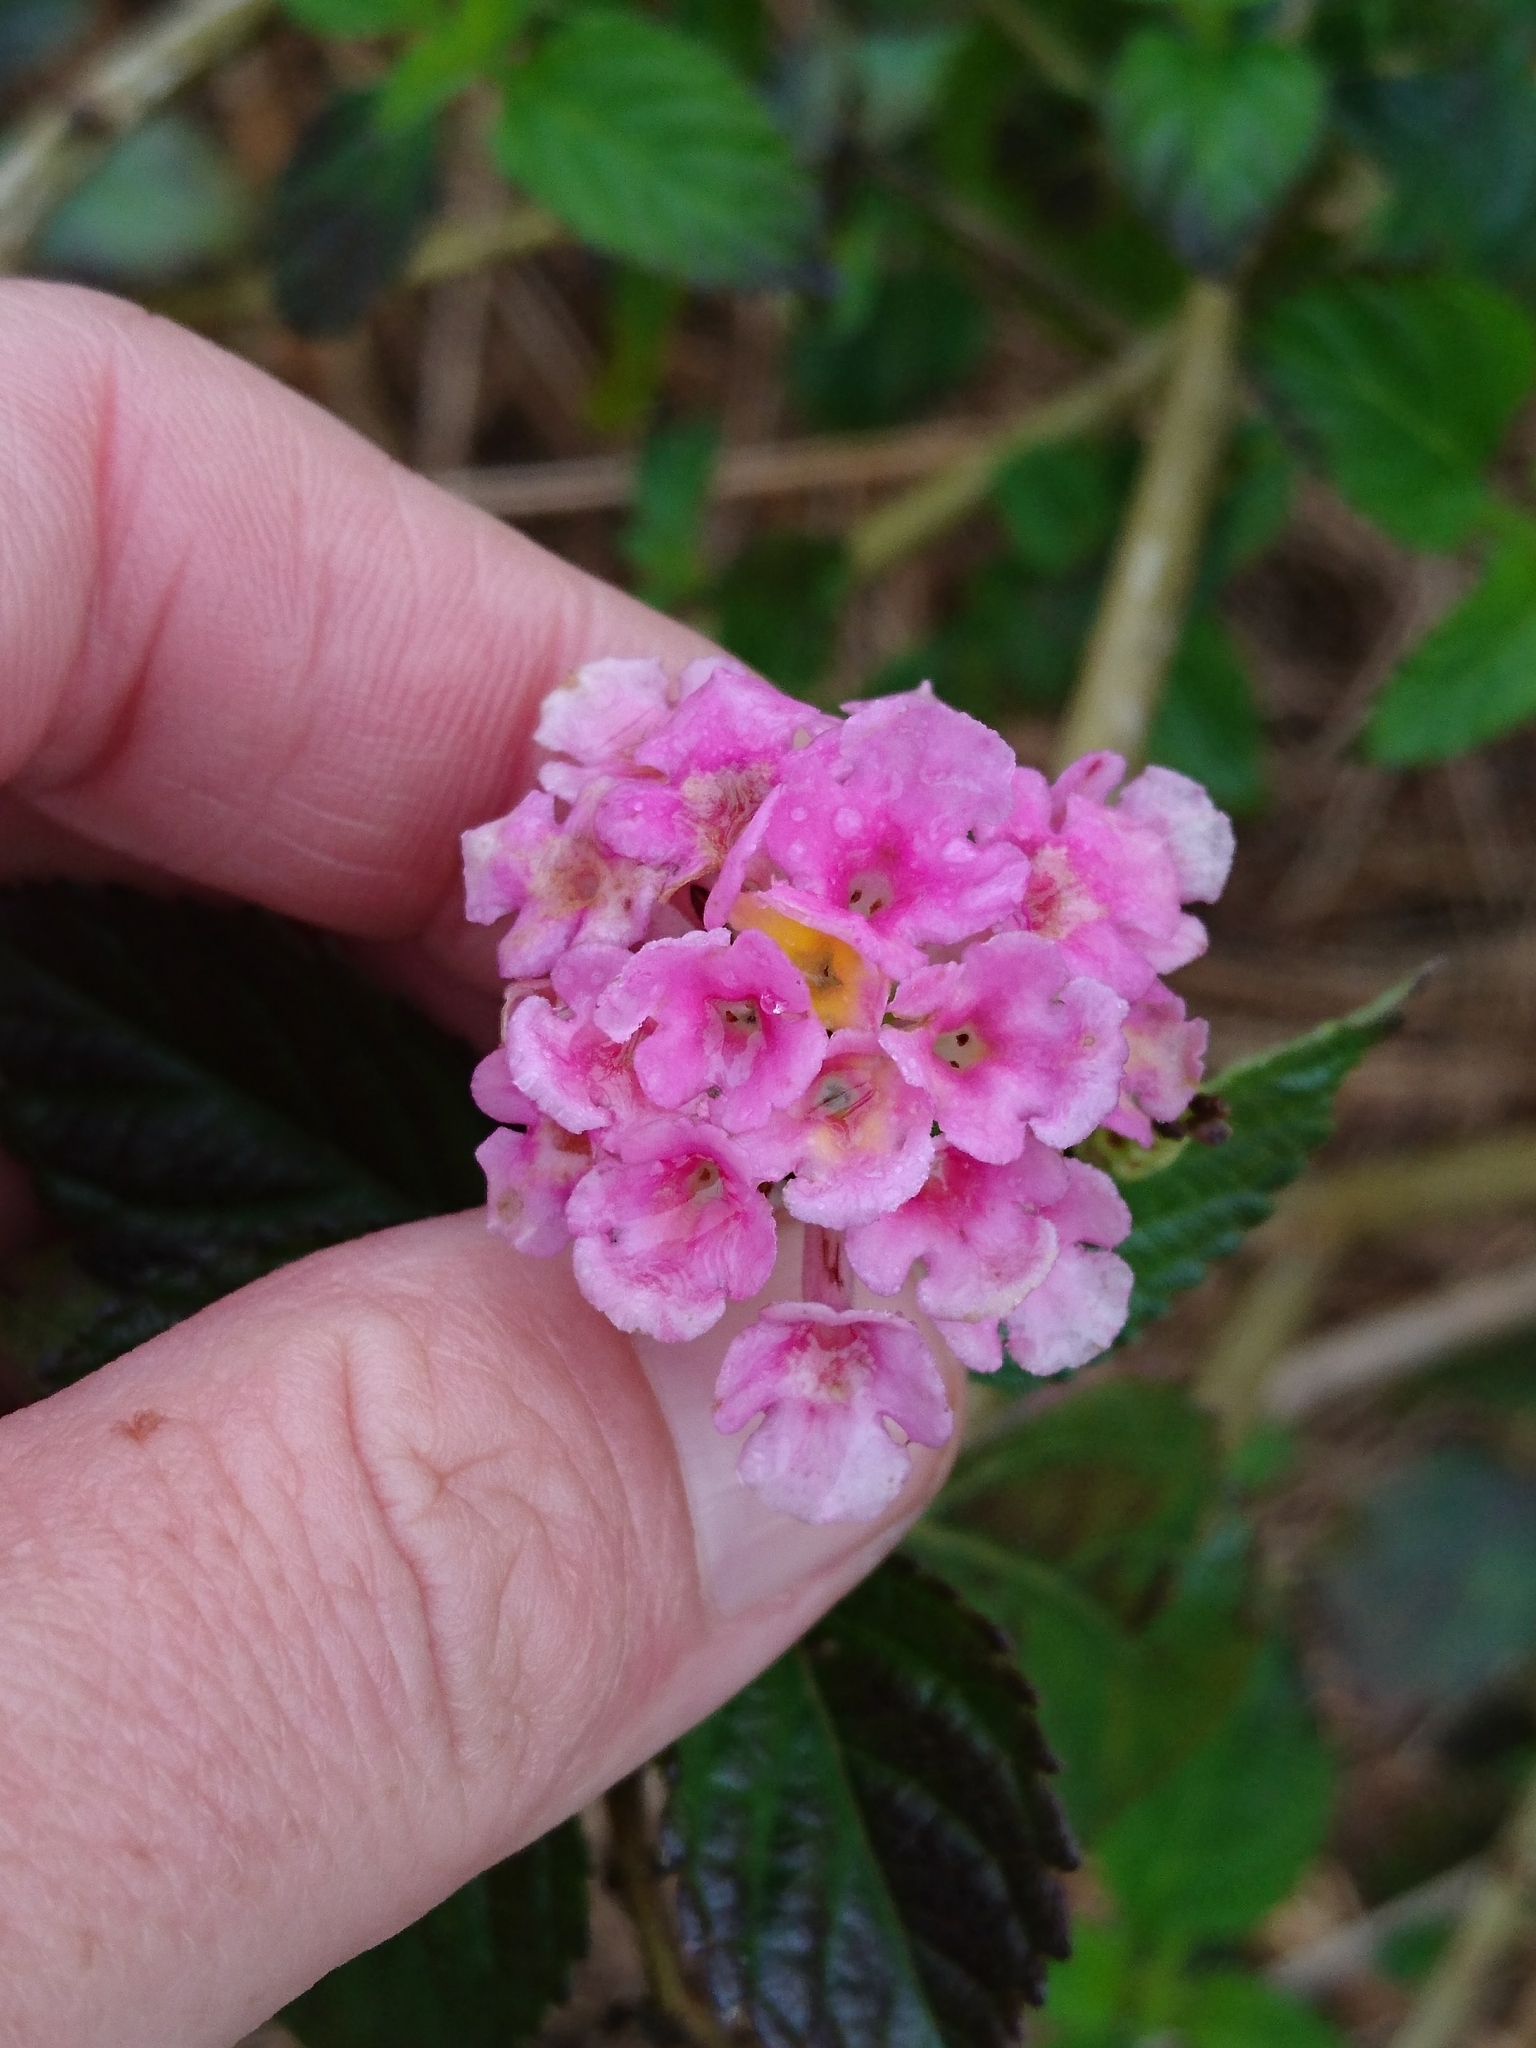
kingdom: Plantae
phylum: Tracheophyta
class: Magnoliopsida
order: Lamiales
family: Verbenaceae
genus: Lantana
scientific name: Lantana strigocamara
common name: Lantana
